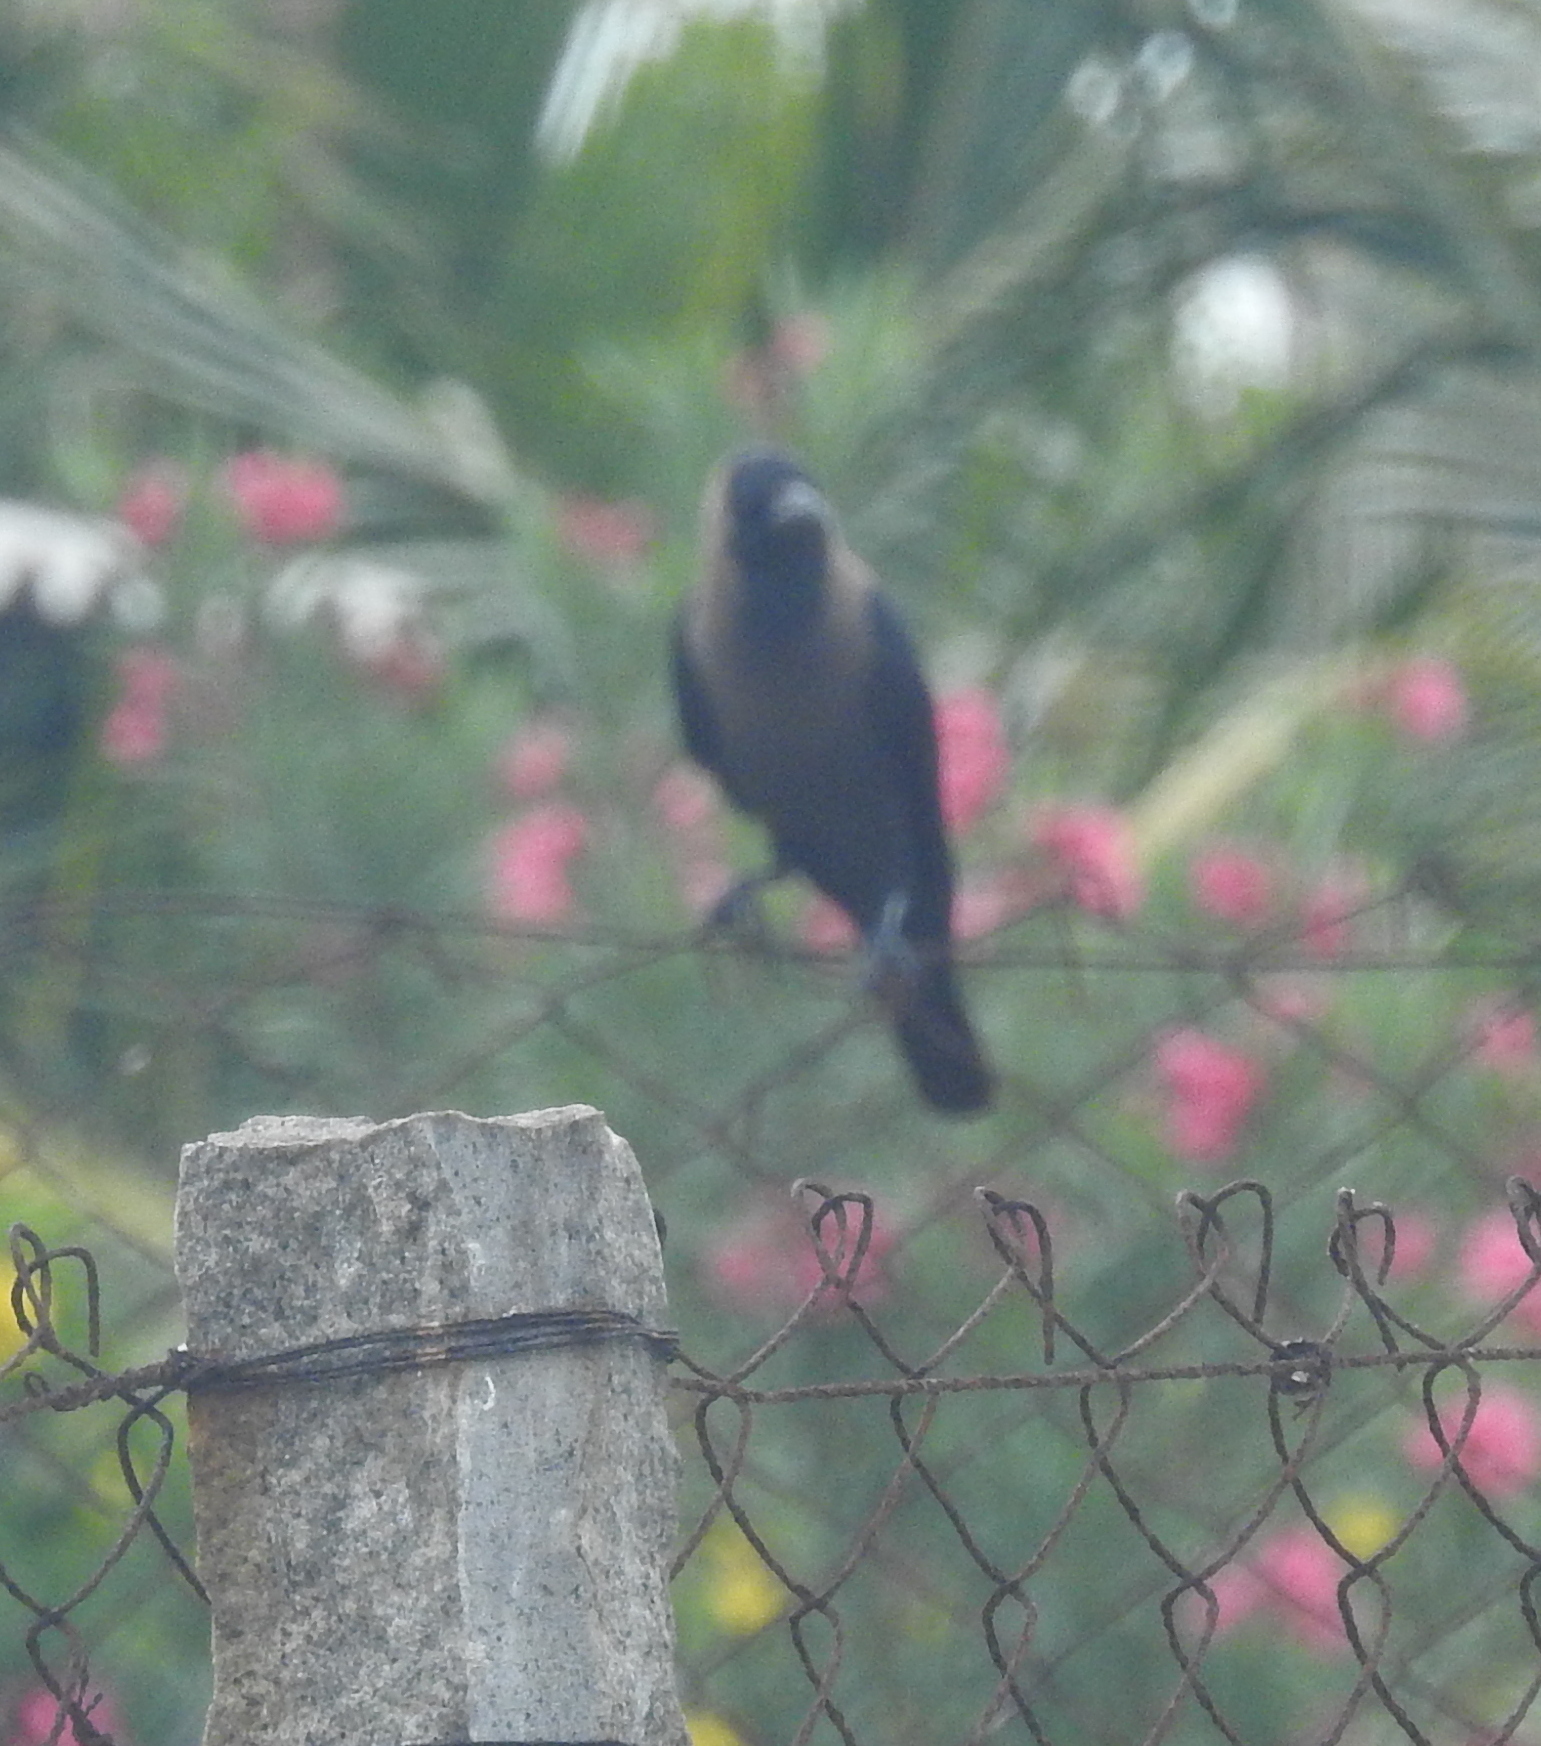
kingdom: Animalia
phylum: Chordata
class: Aves
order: Passeriformes
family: Corvidae
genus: Corvus
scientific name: Corvus splendens
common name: House crow
